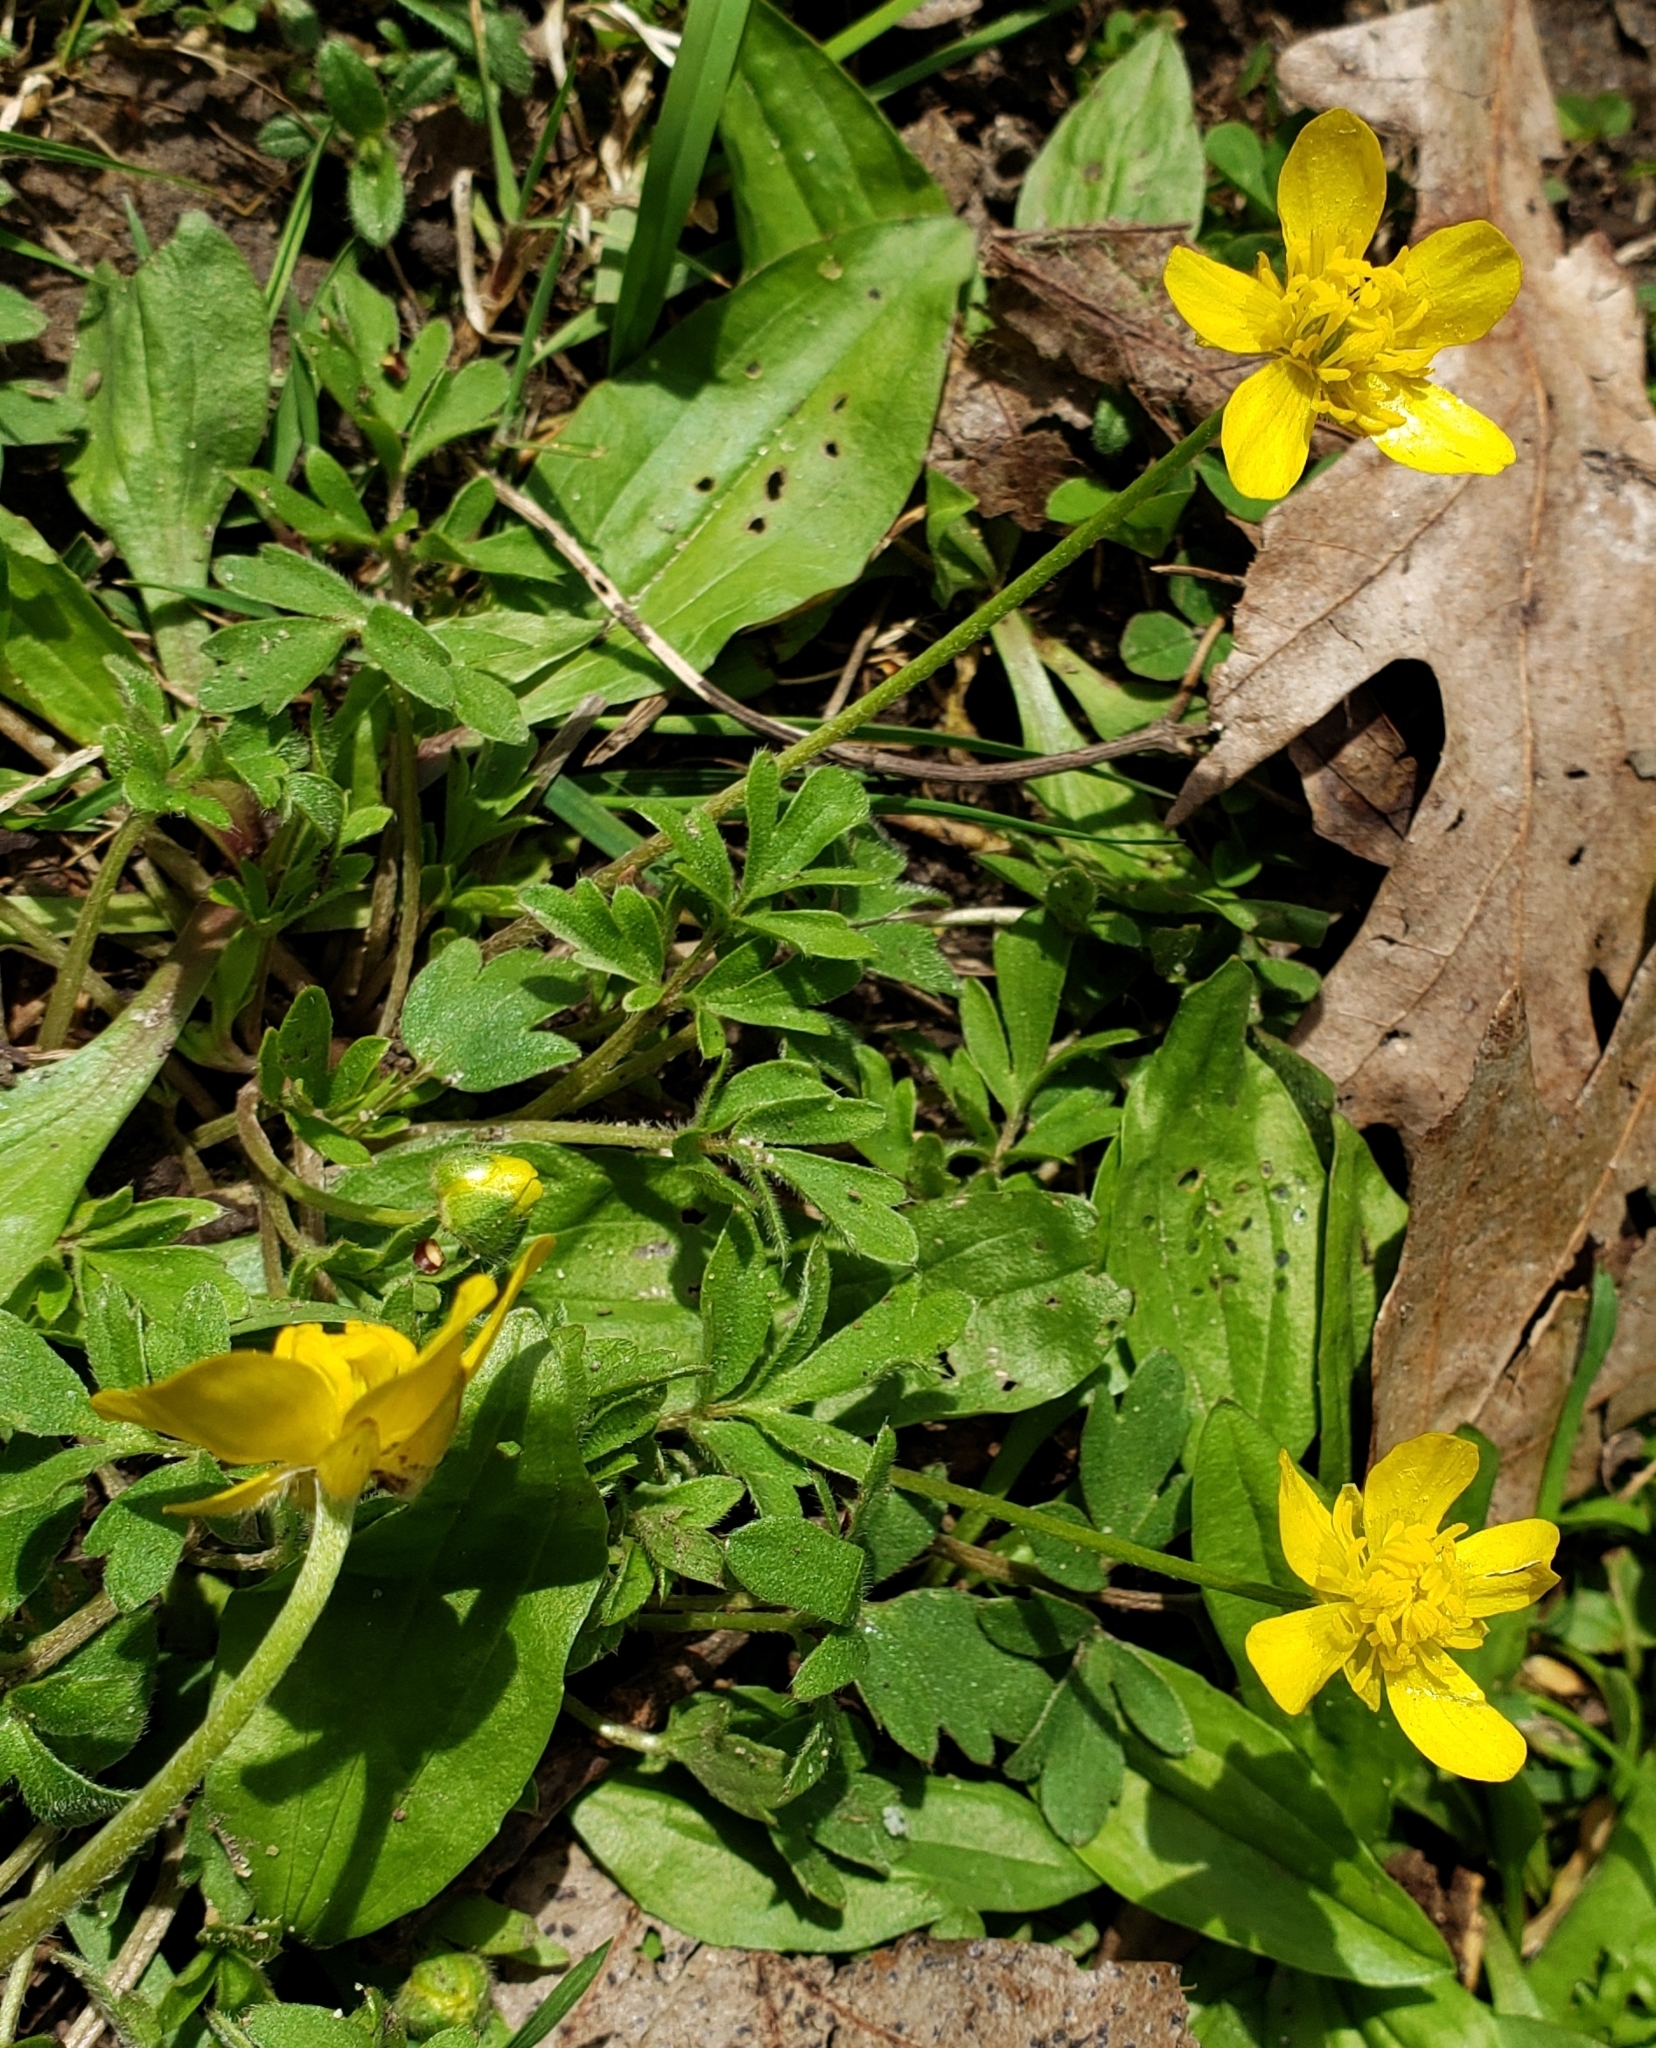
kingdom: Plantae
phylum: Tracheophyta
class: Magnoliopsida
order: Ranunculales
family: Ranunculaceae
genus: Ranunculus
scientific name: Ranunculus fascicularis
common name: Early buttercup
